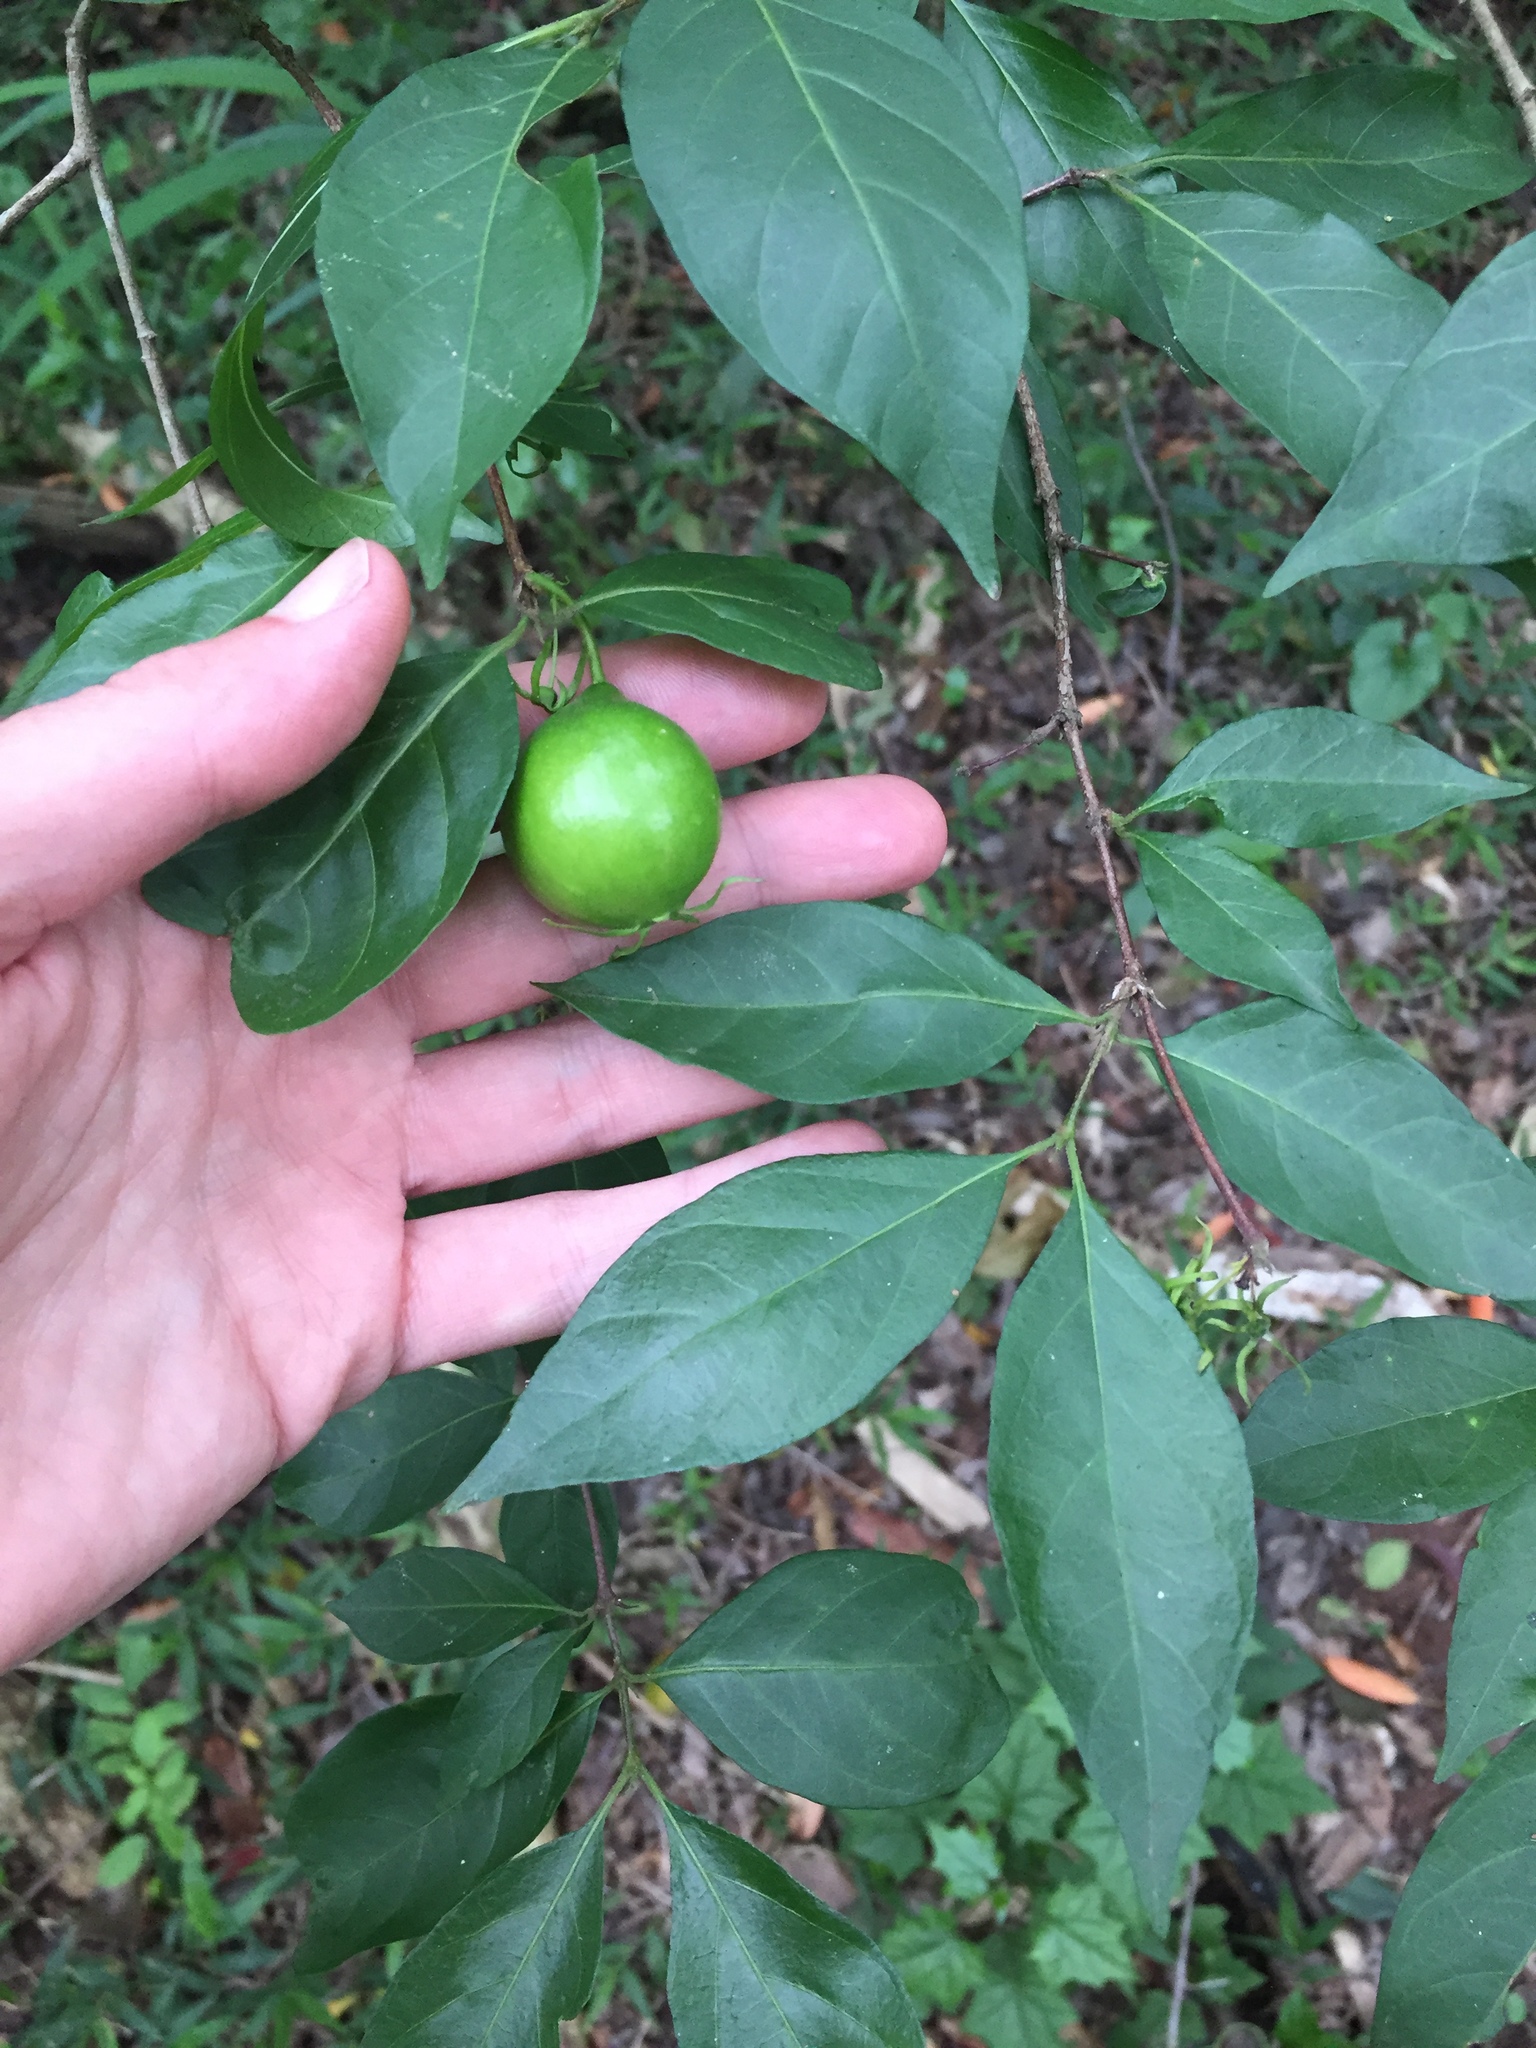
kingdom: Plantae
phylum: Tracheophyta
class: Magnoliopsida
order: Gentianales
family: Rubiaceae
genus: Vangueria
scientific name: Vangueria lasiantha
